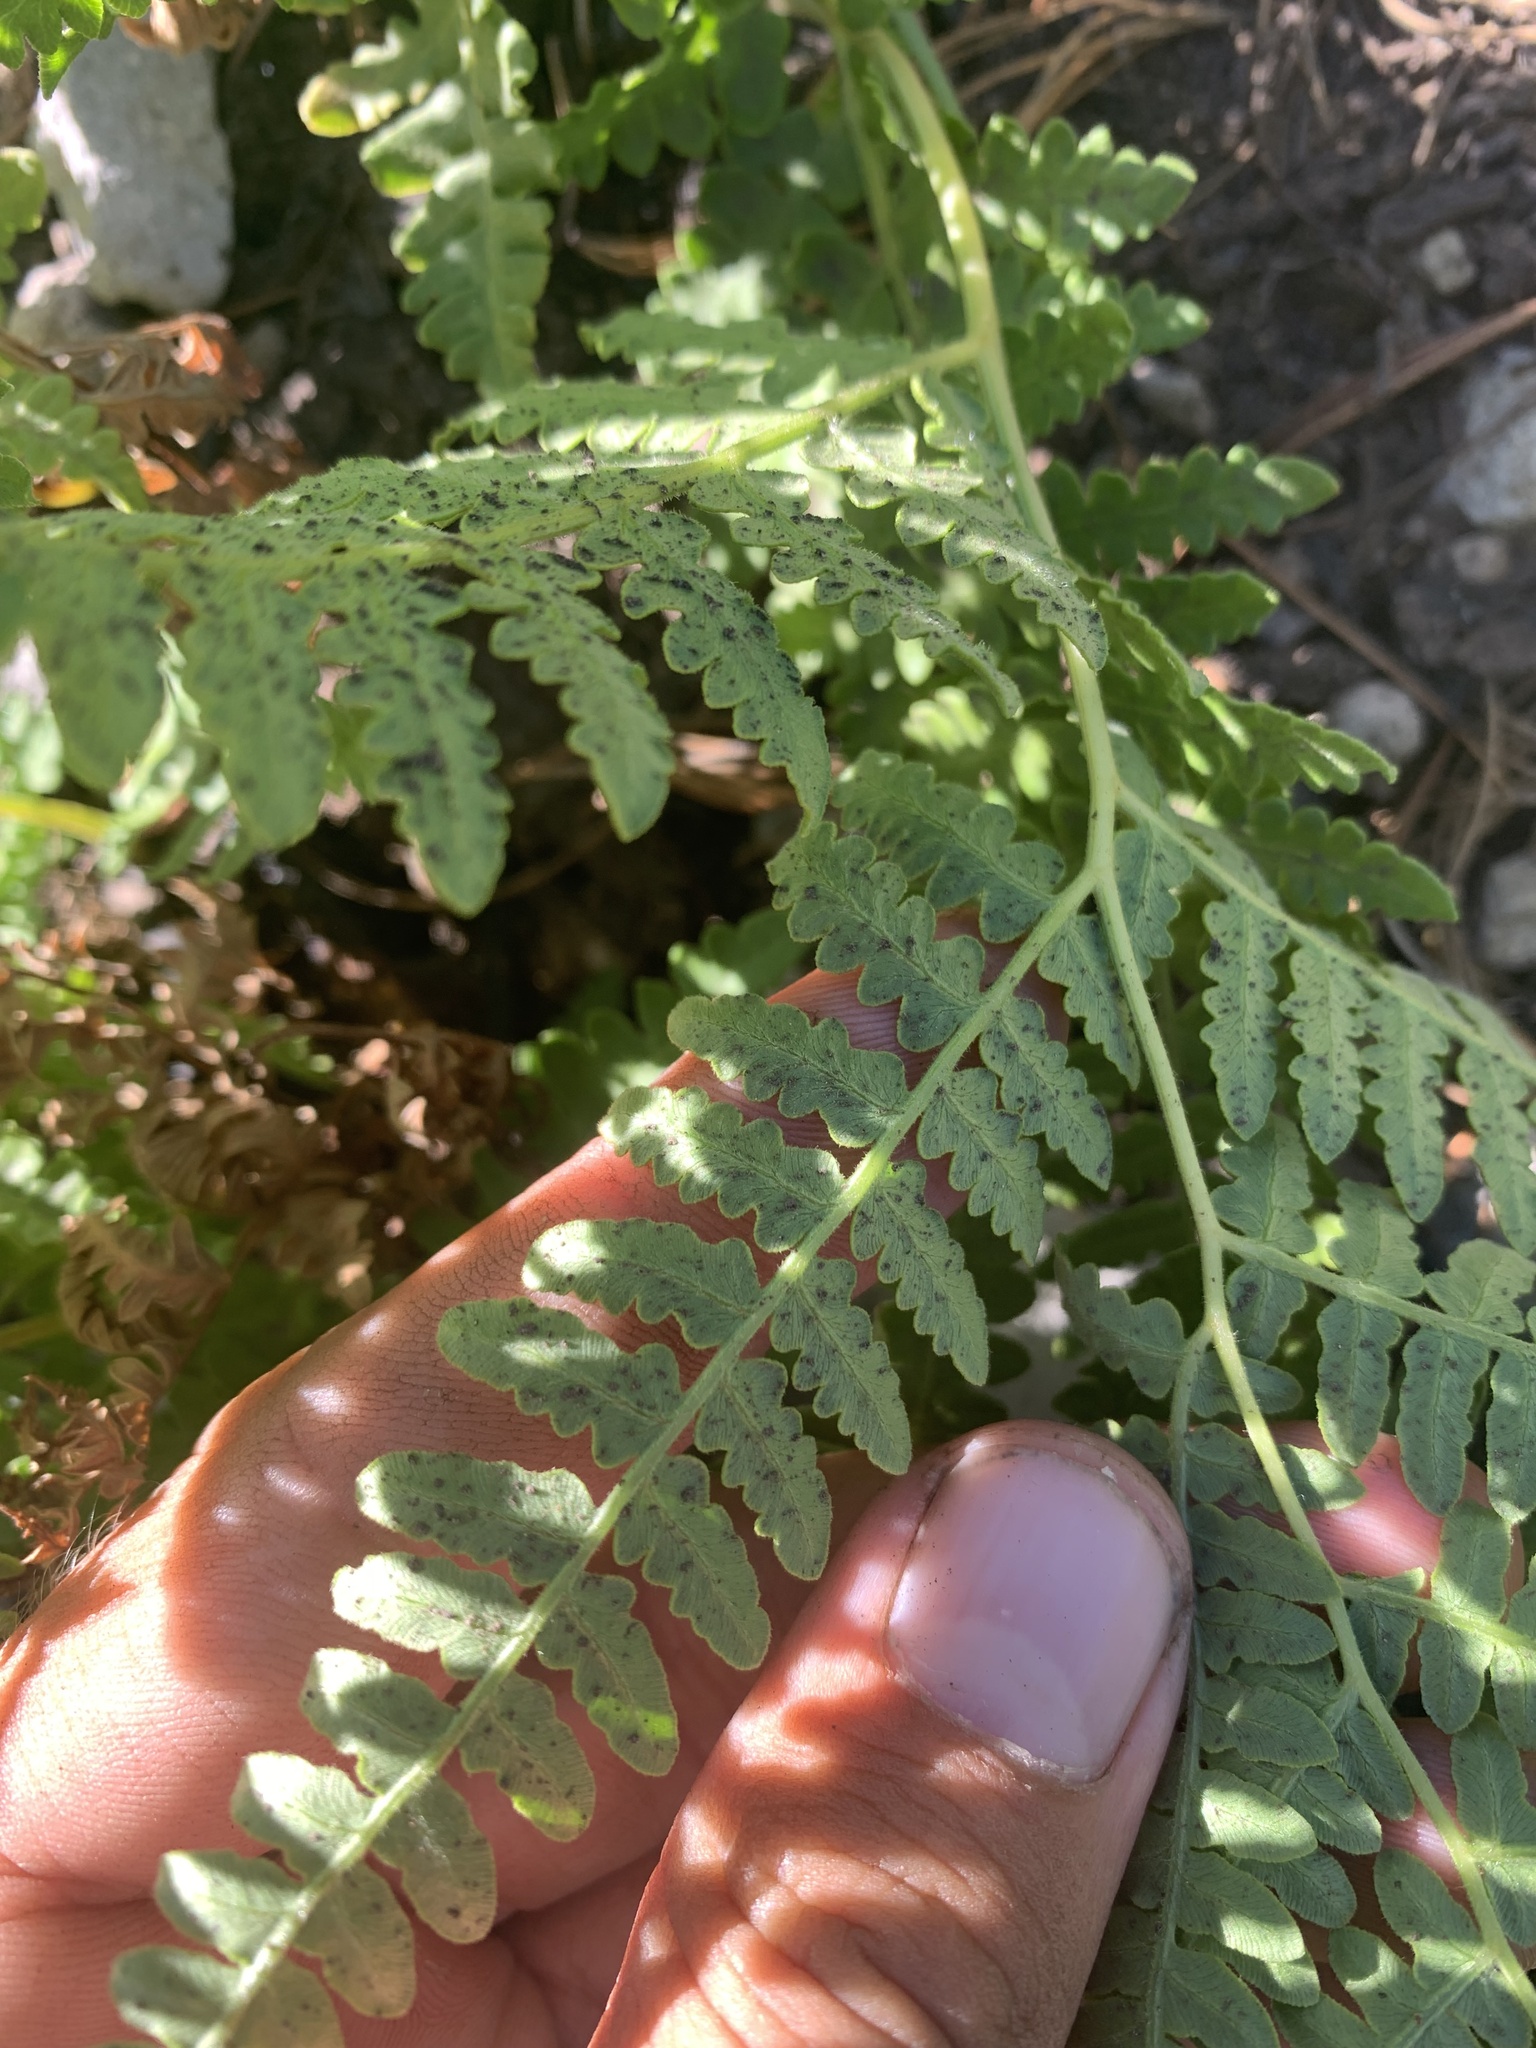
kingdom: Plantae
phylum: Tracheophyta
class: Polypodiopsida
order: Polypodiales
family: Dennstaedtiaceae
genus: Pteridium
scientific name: Pteridium aquilinum
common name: Bracken
